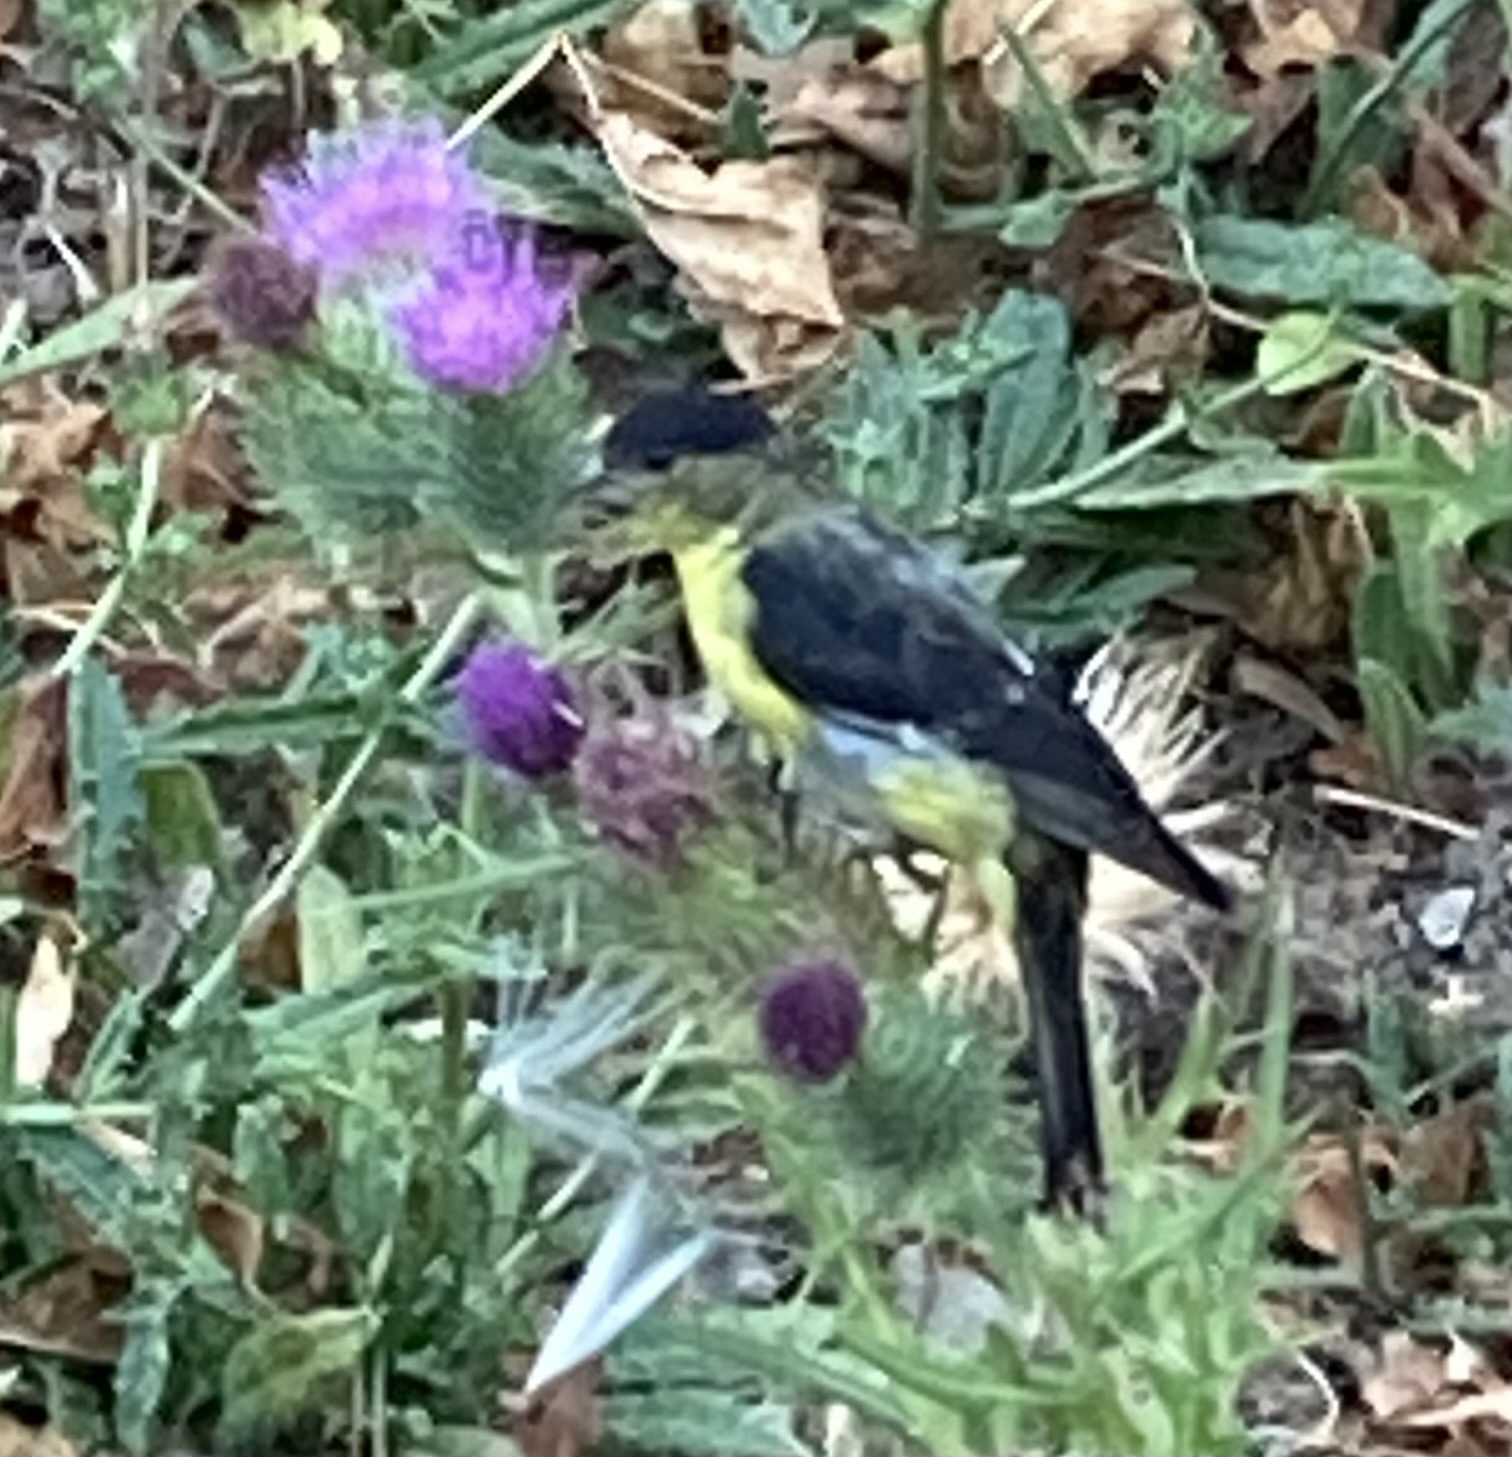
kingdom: Animalia
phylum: Chordata
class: Aves
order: Passeriformes
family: Fringillidae
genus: Spinus
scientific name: Spinus psaltria
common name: Lesser goldfinch
